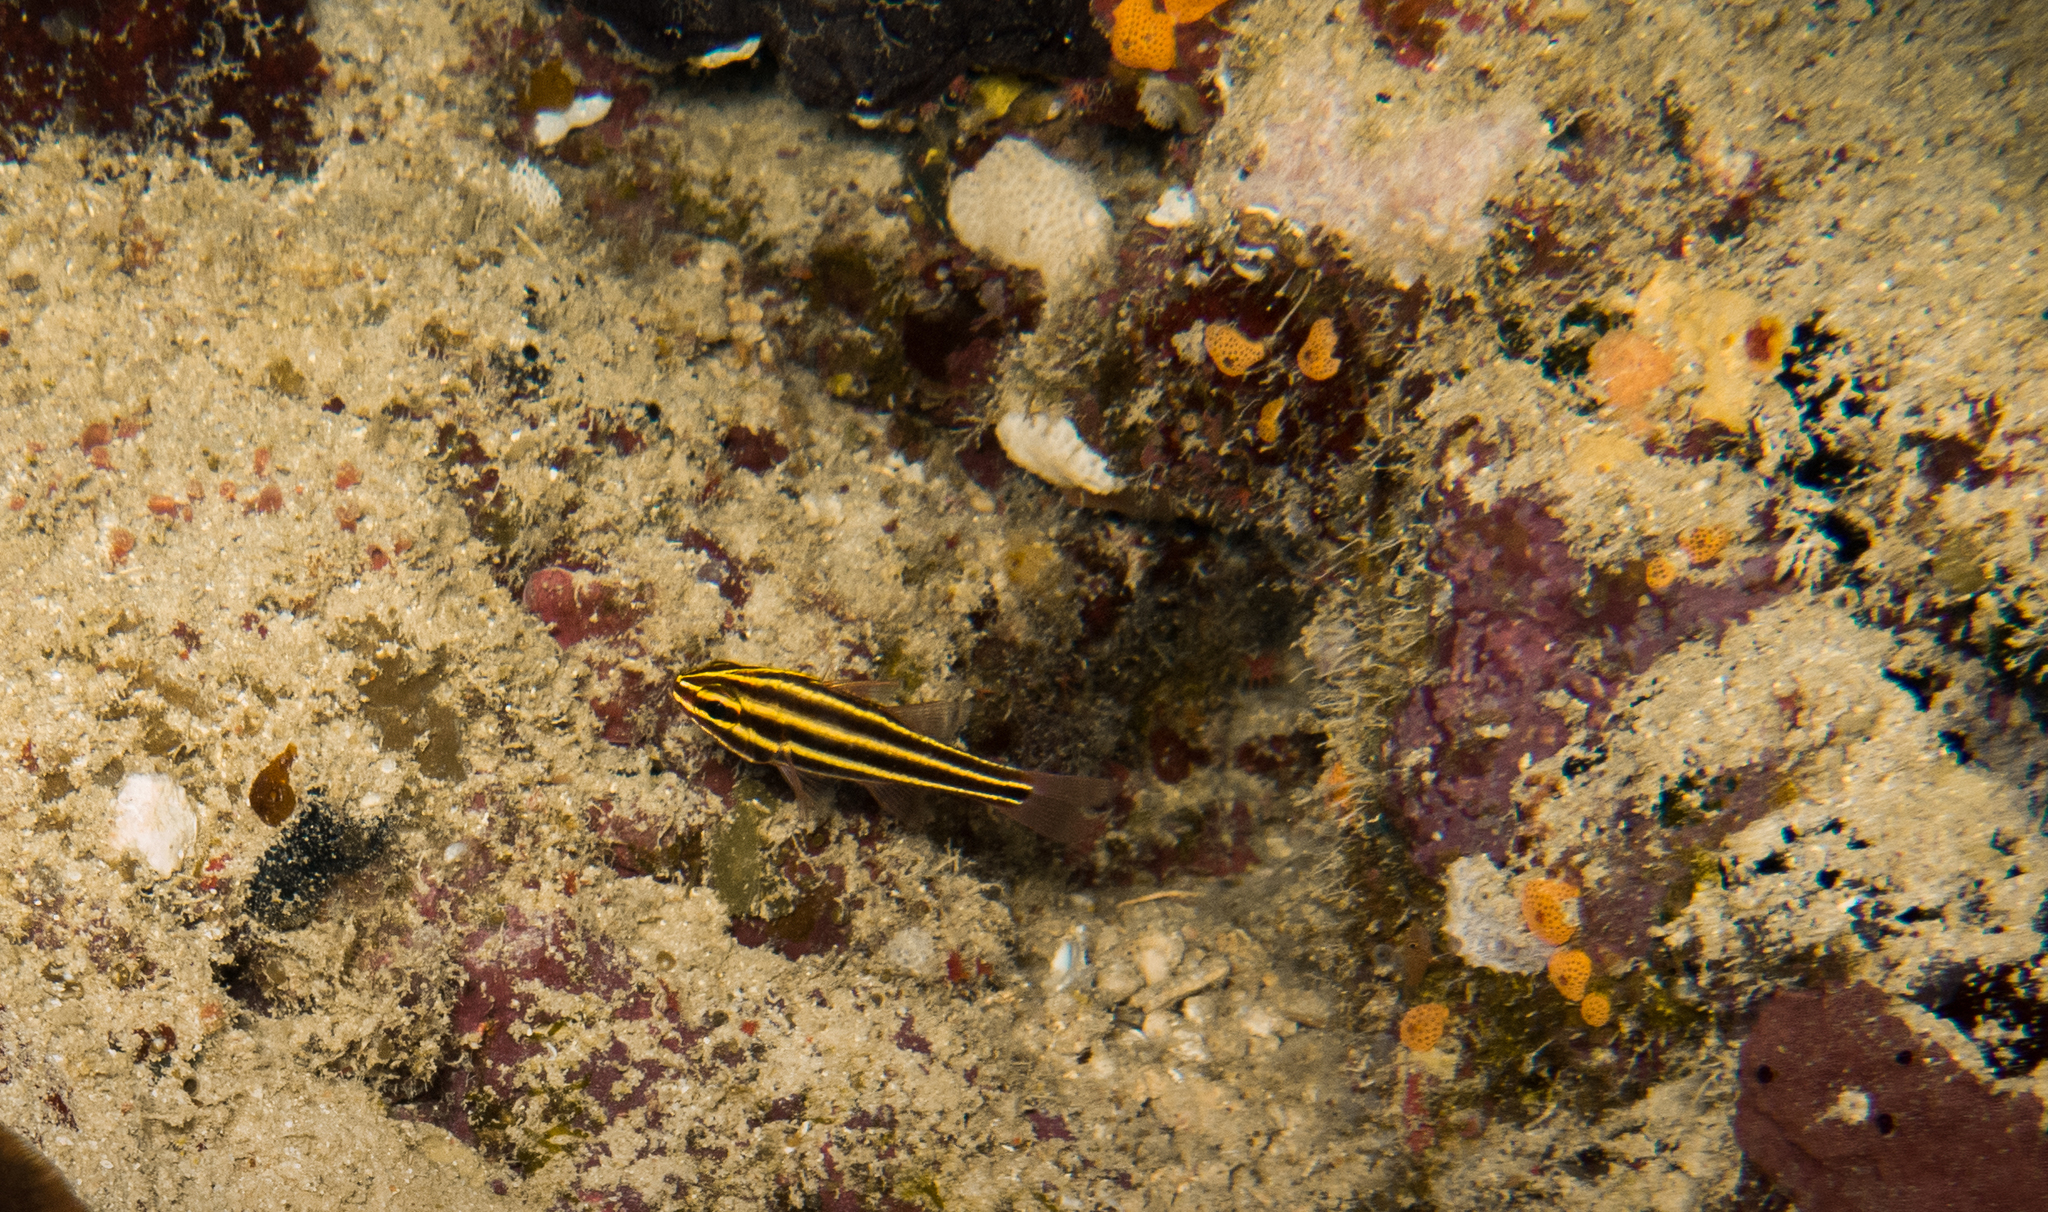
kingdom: Animalia
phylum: Chordata
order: Perciformes
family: Apogonidae
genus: Ostorhinchus
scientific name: Ostorhinchus nigrofasciatus
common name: Blackstripe cardinalfish
